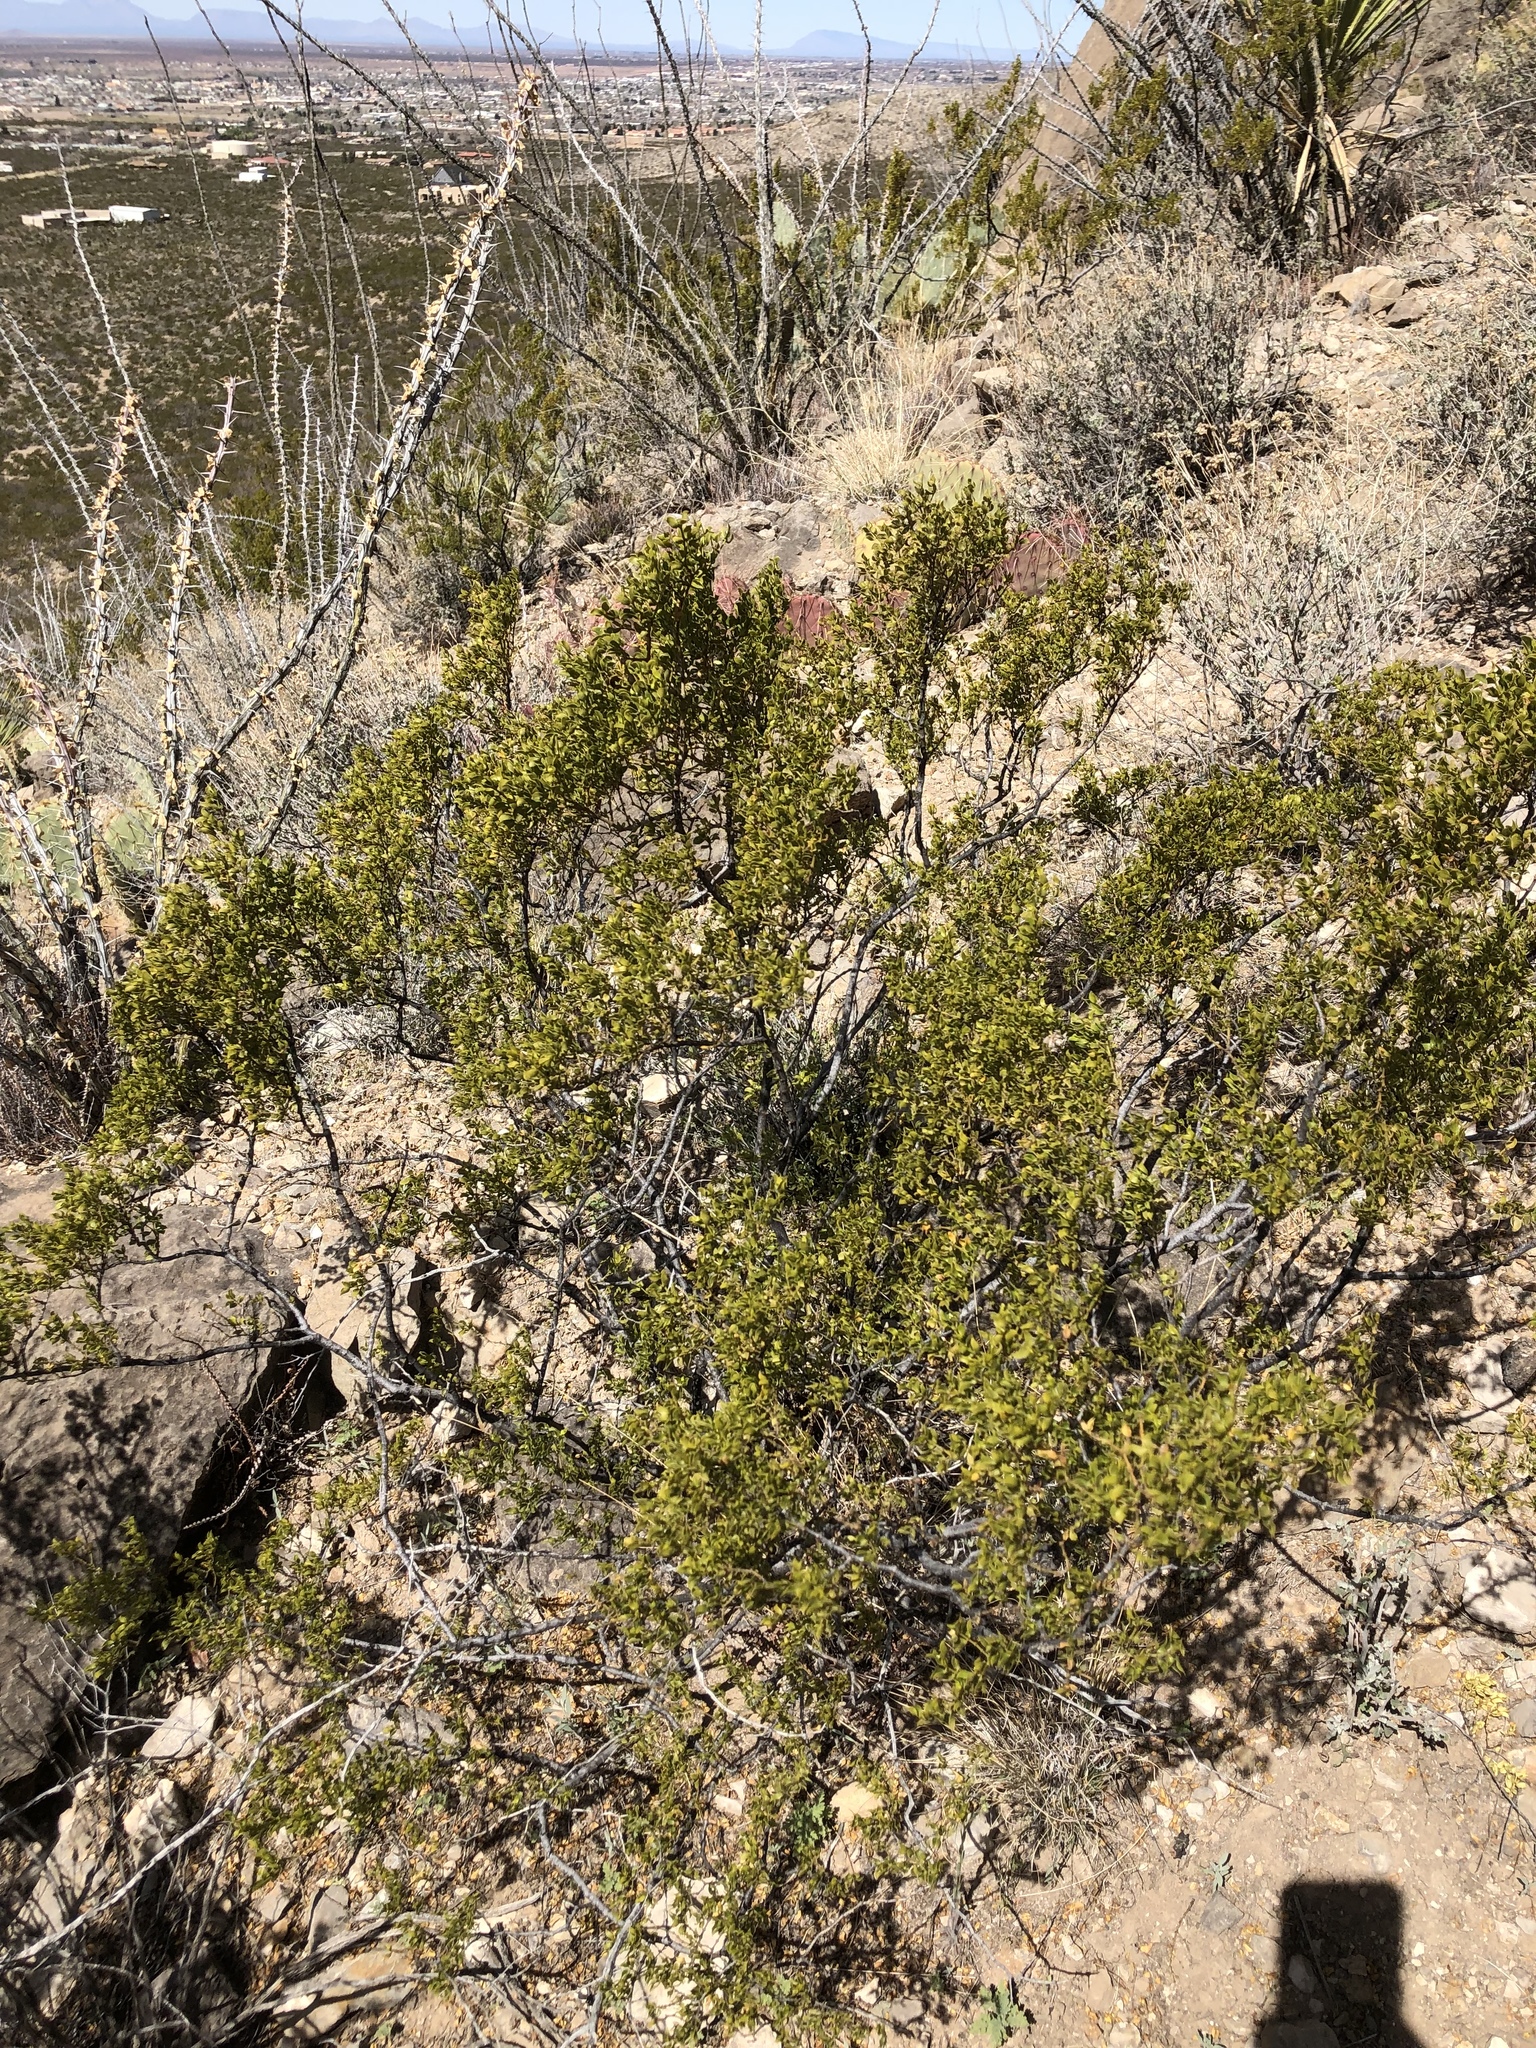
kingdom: Plantae
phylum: Tracheophyta
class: Magnoliopsida
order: Zygophyllales
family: Zygophyllaceae
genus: Larrea
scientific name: Larrea tridentata
